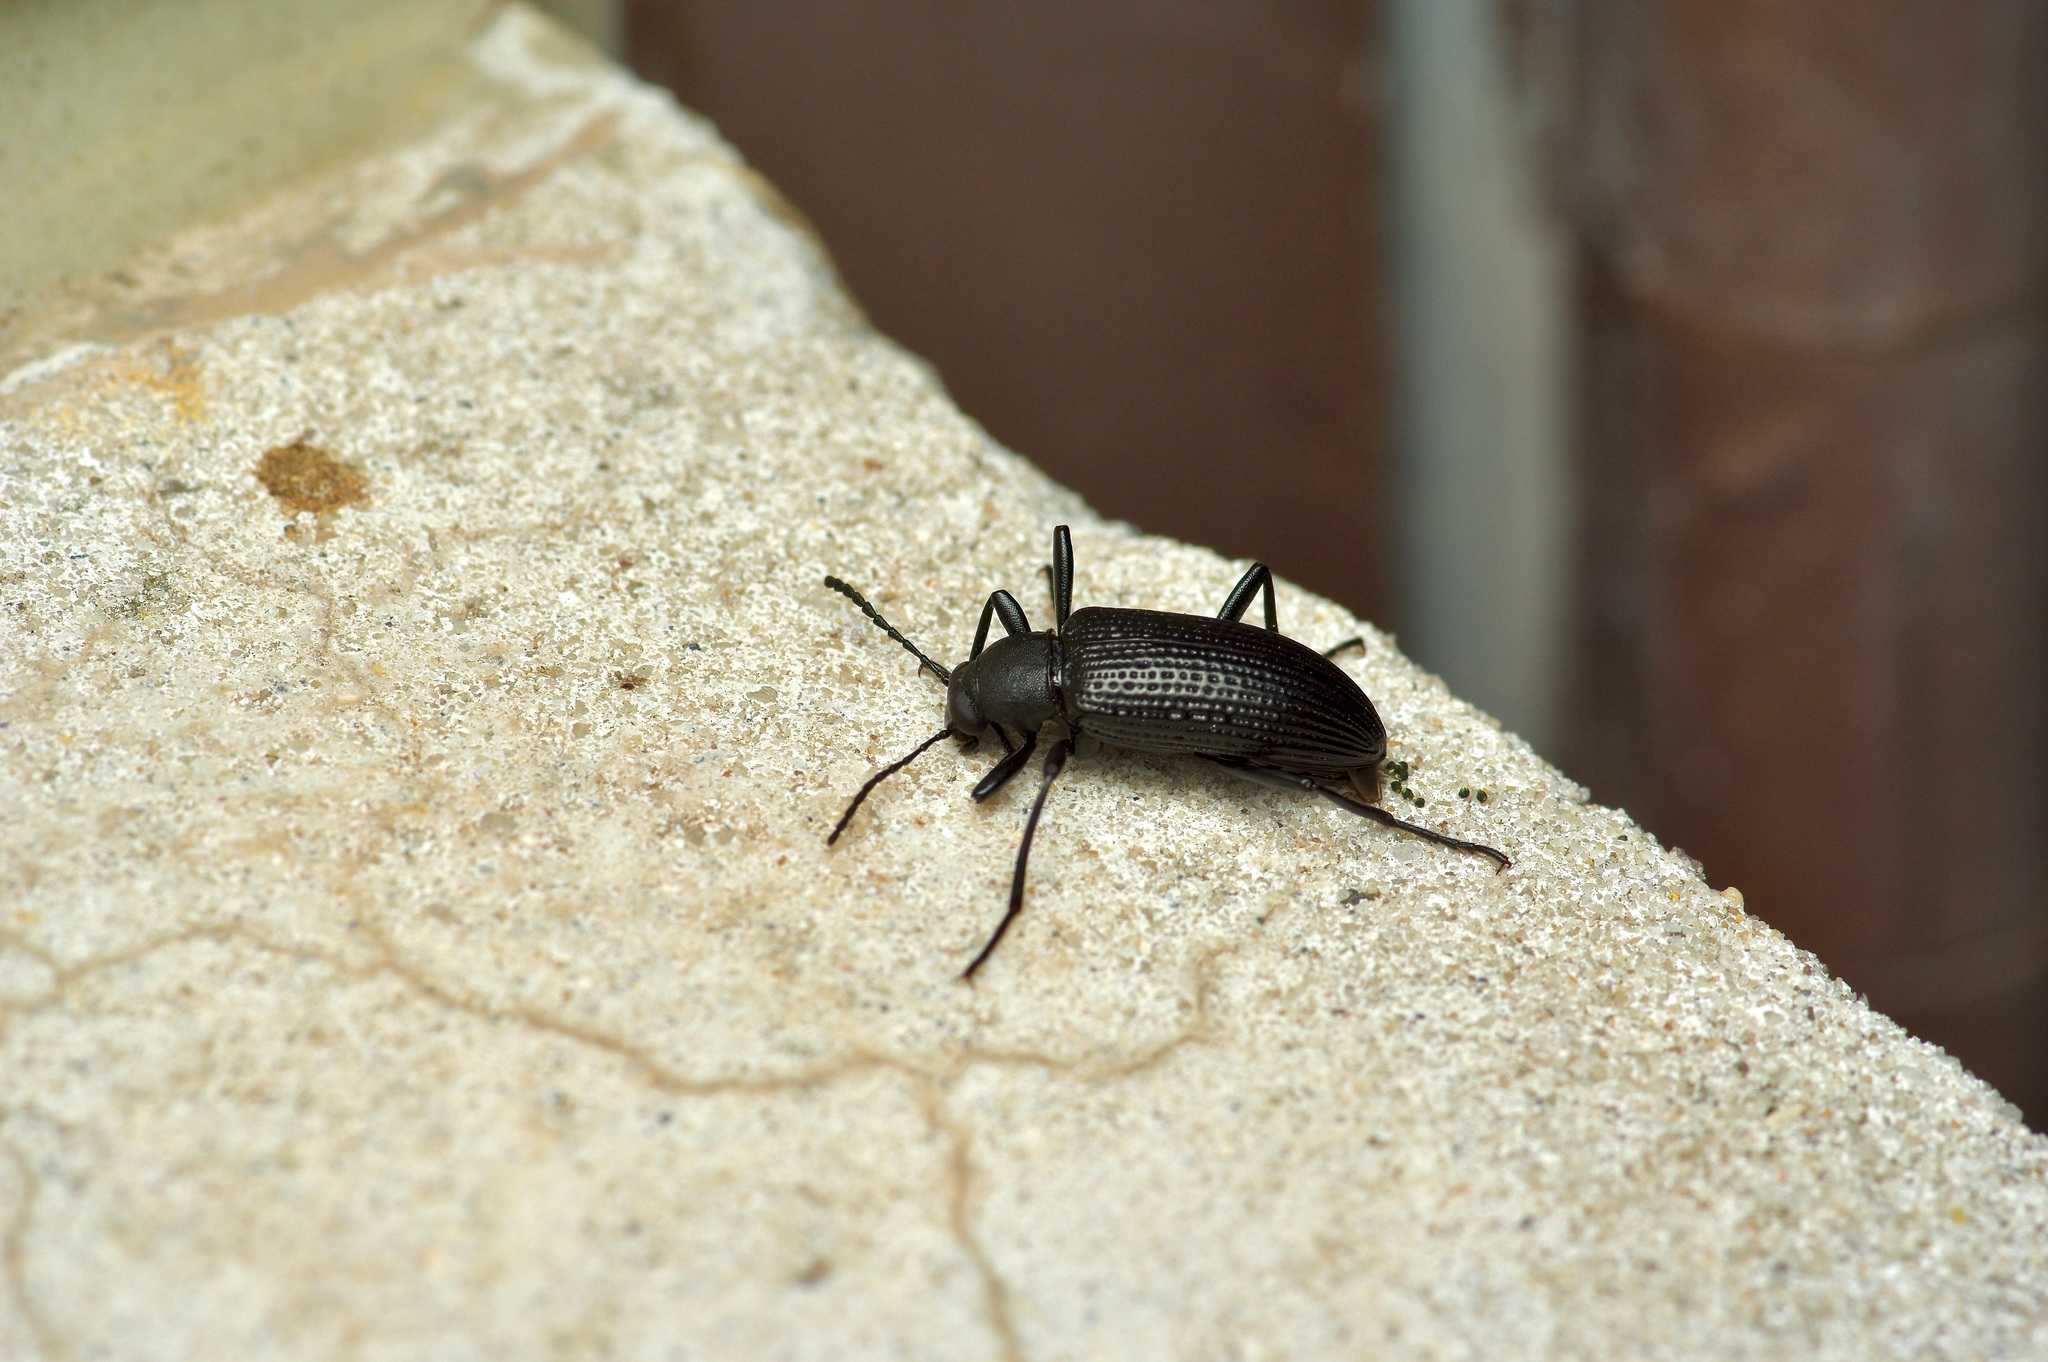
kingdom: Animalia
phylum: Arthropoda
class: Insecta
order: Coleoptera
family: Tenebrionidae
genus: Strongylium
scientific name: Strongylium hemistriatum
